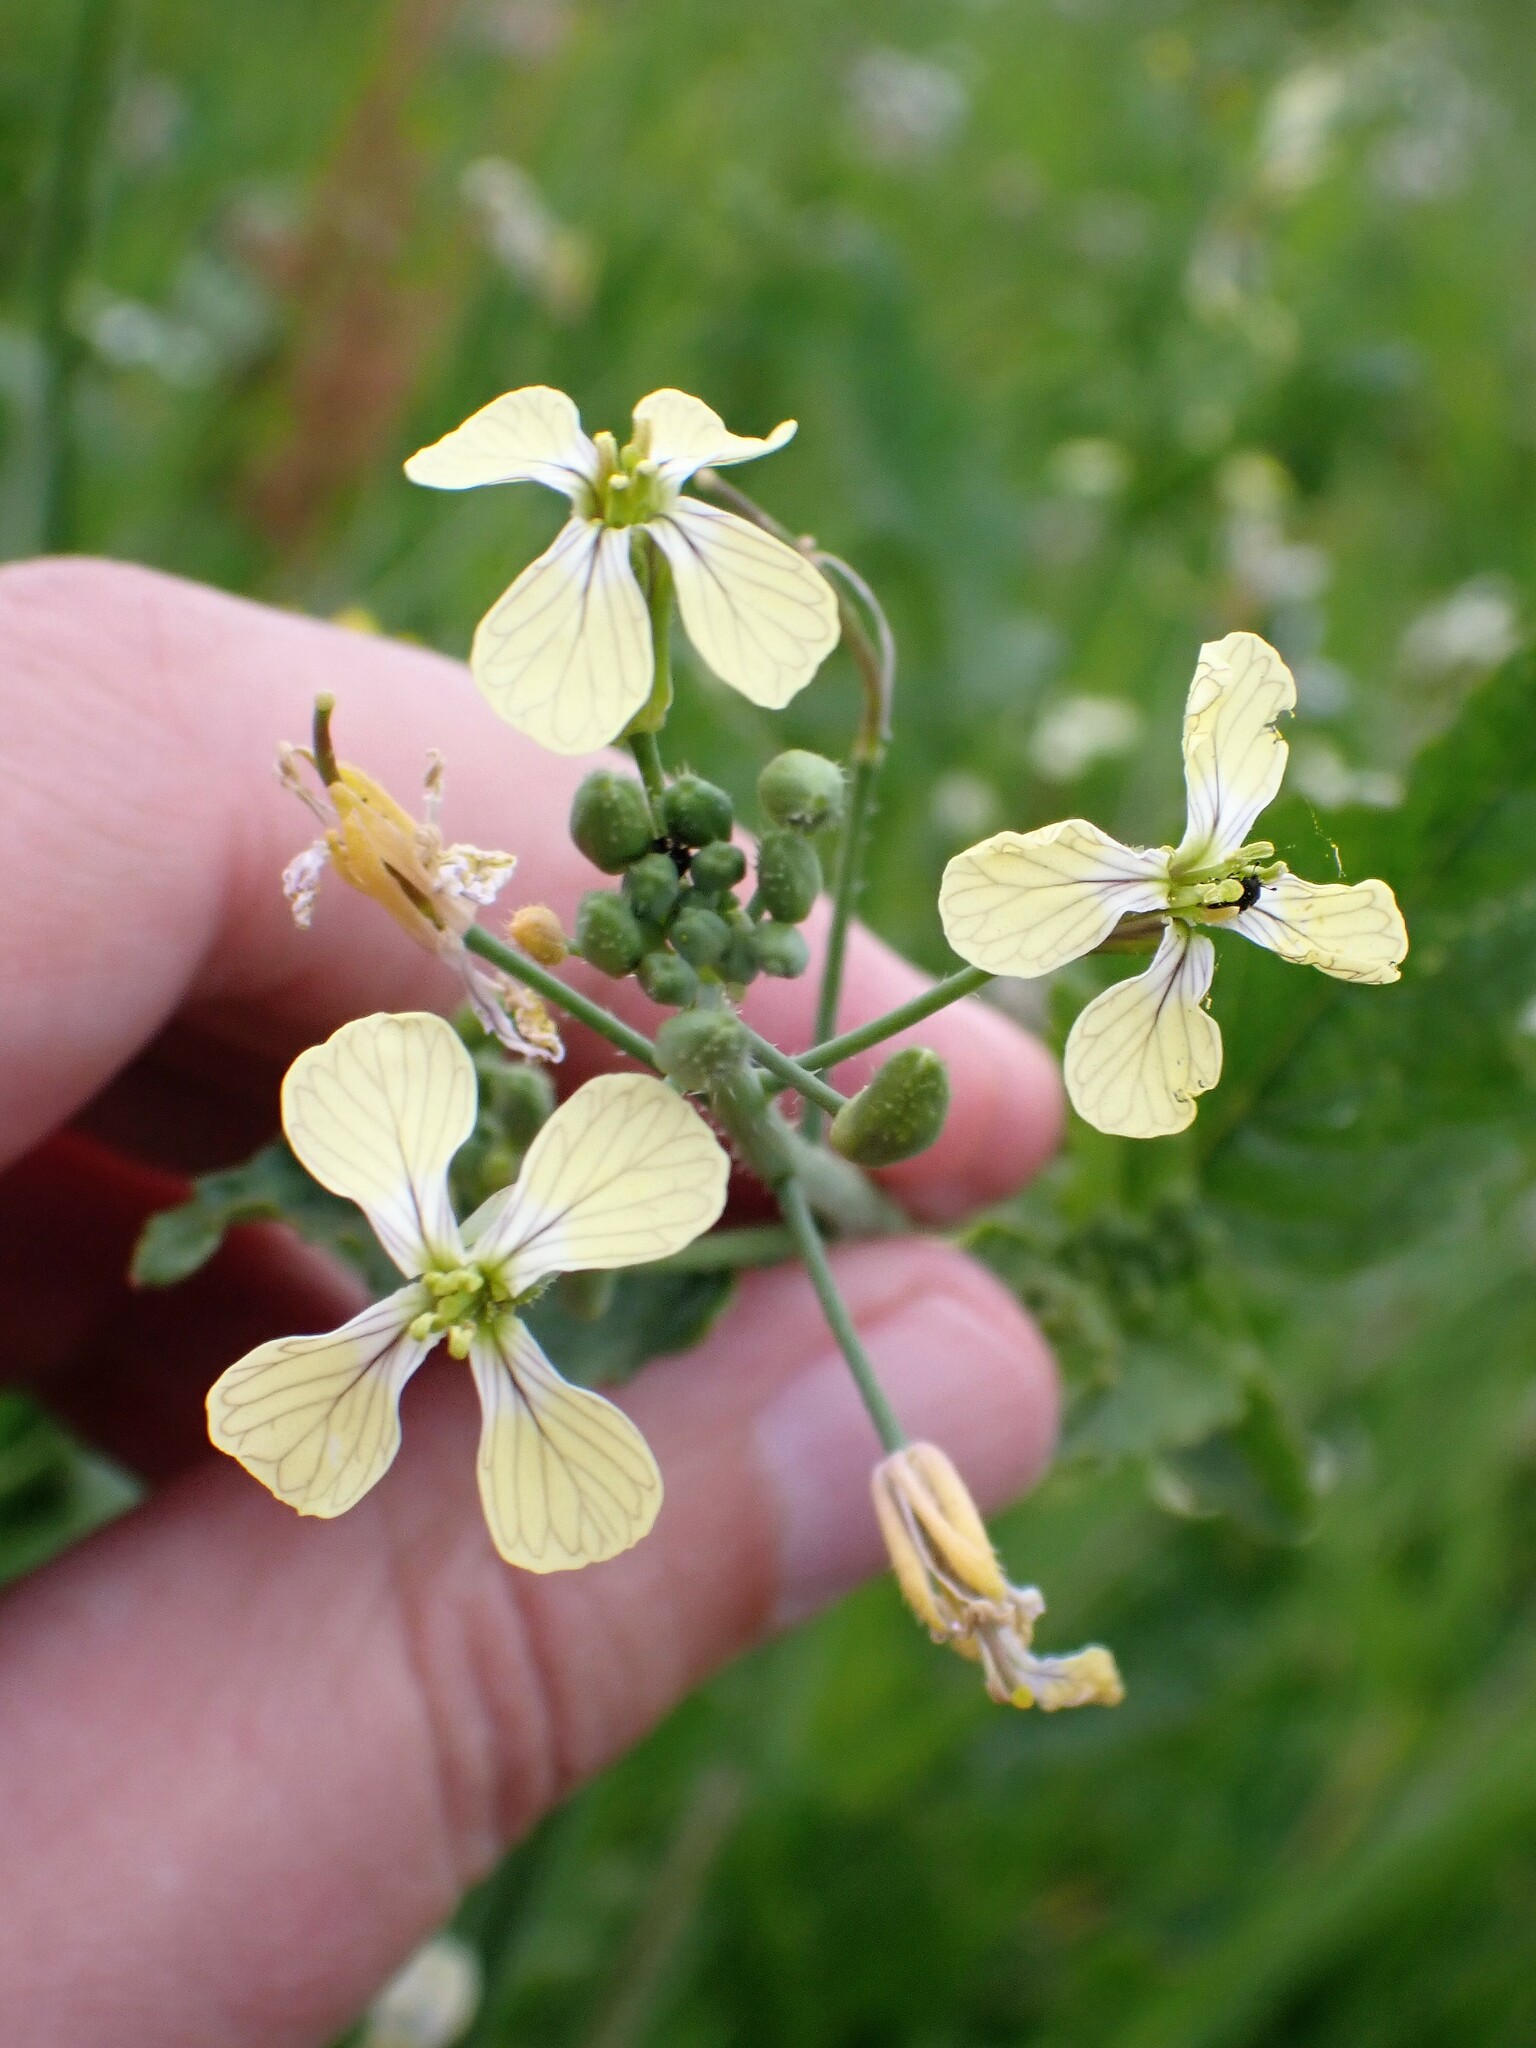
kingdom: Plantae
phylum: Tracheophyta
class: Magnoliopsida
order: Brassicales
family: Brassicaceae
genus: Raphanus
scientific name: Raphanus raphanistrum
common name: Wild radish
